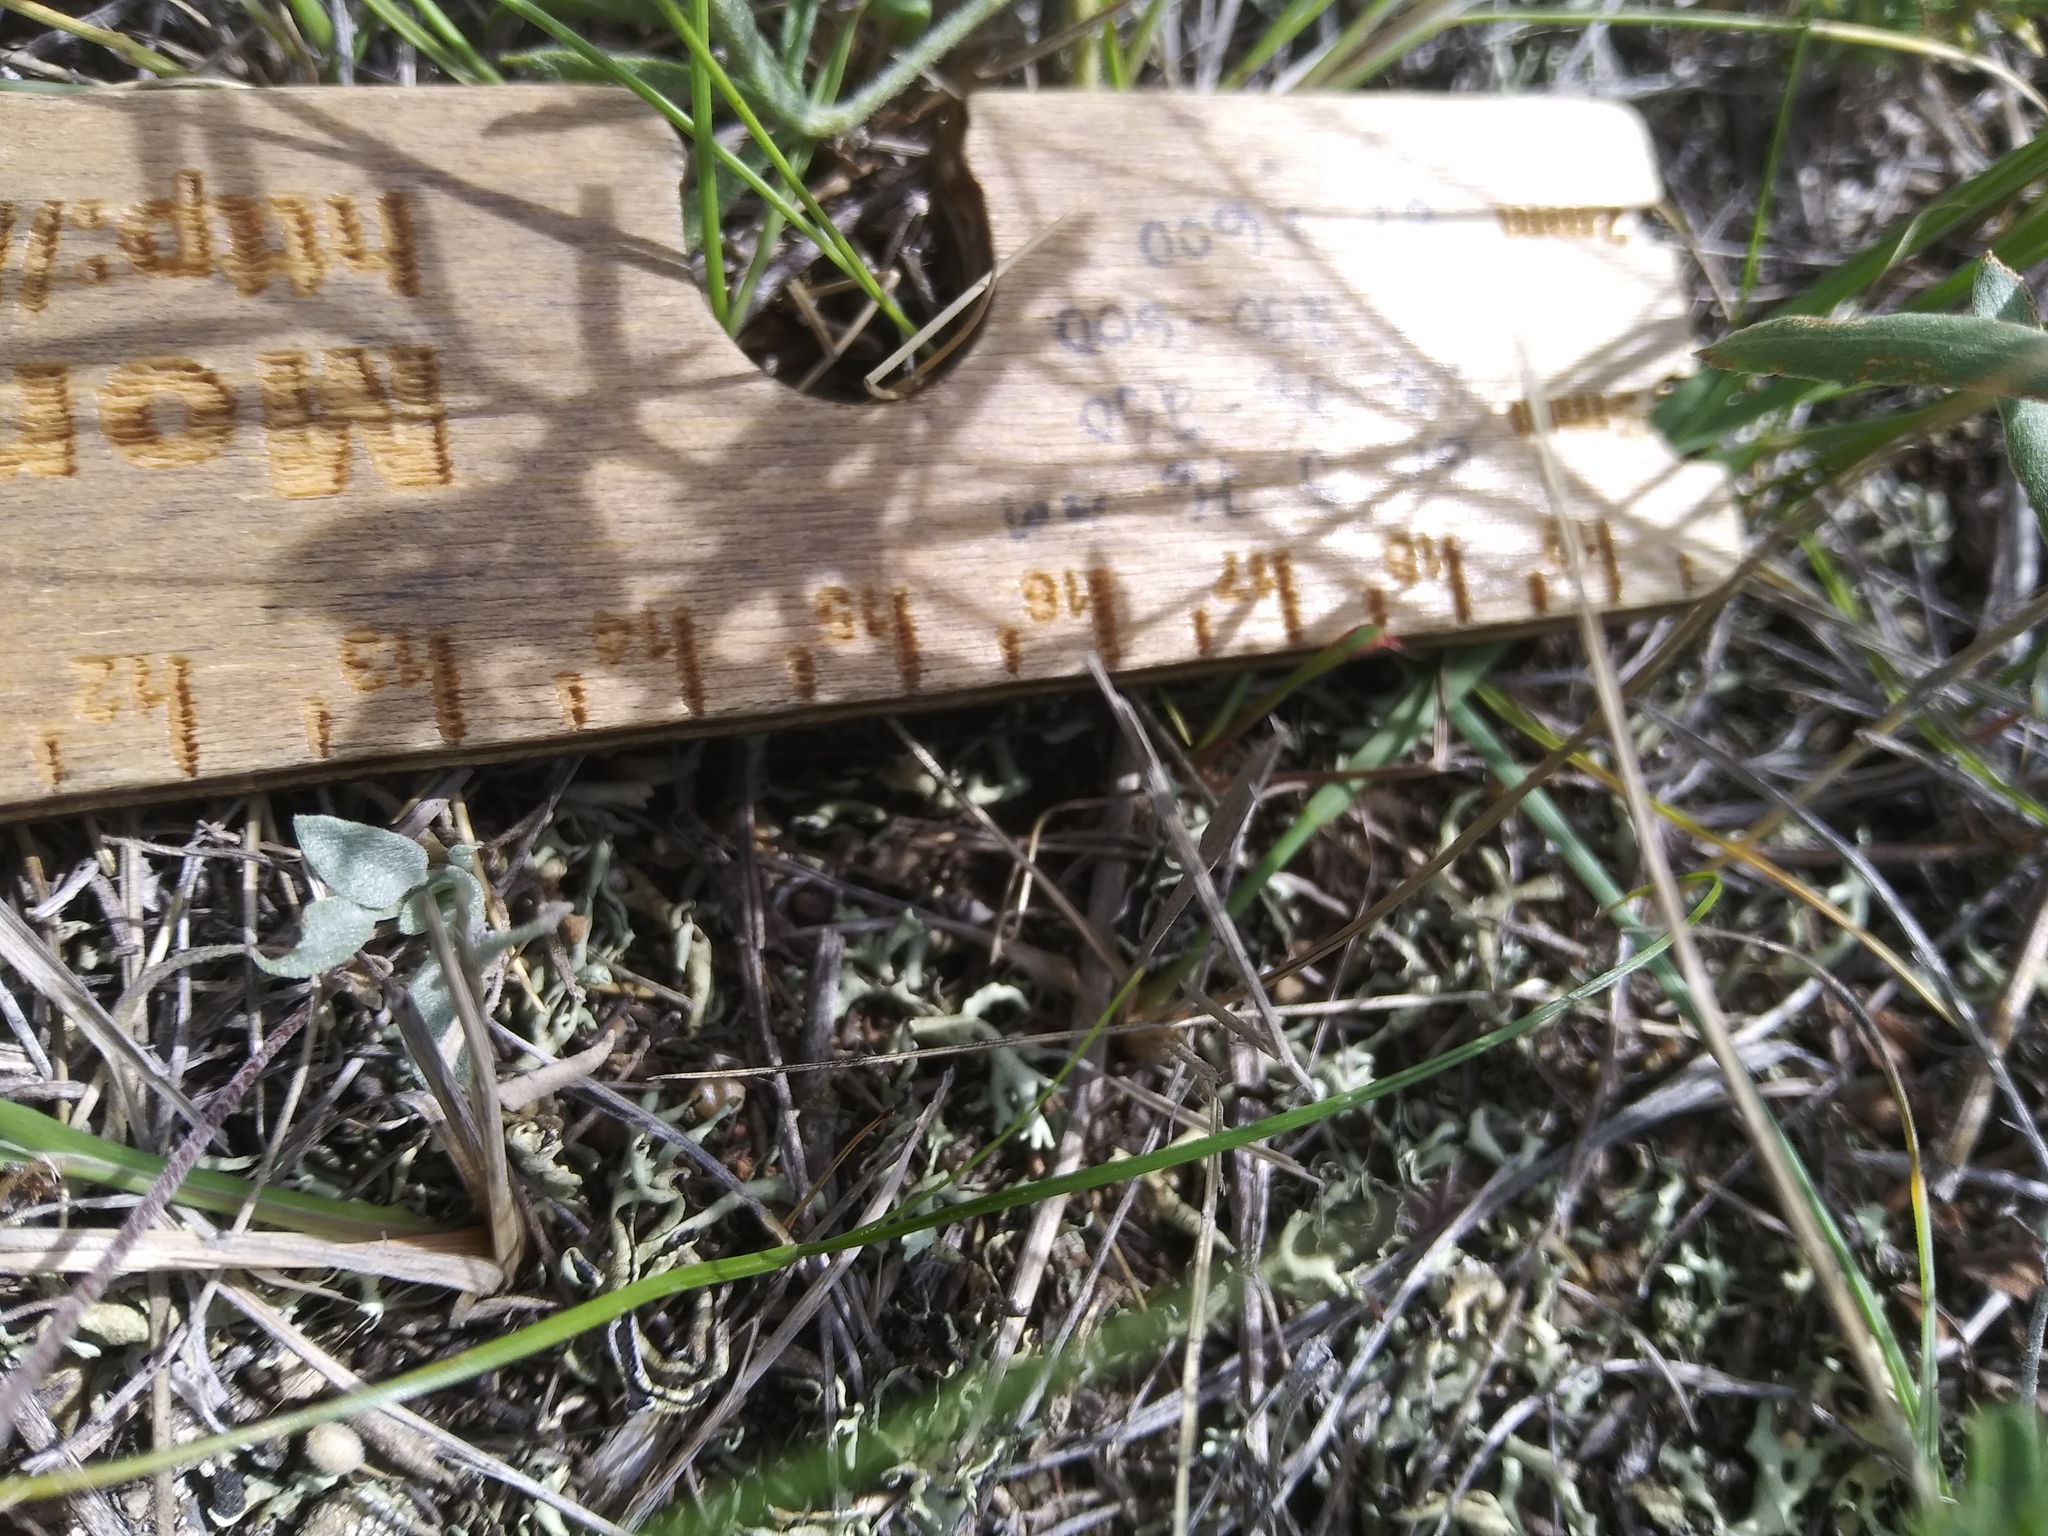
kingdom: Plantae
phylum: Tracheophyta
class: Magnoliopsida
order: Brassicales
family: Brassicaceae
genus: Physaria
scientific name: Physaria arenosa
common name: Great plains bladderpod
